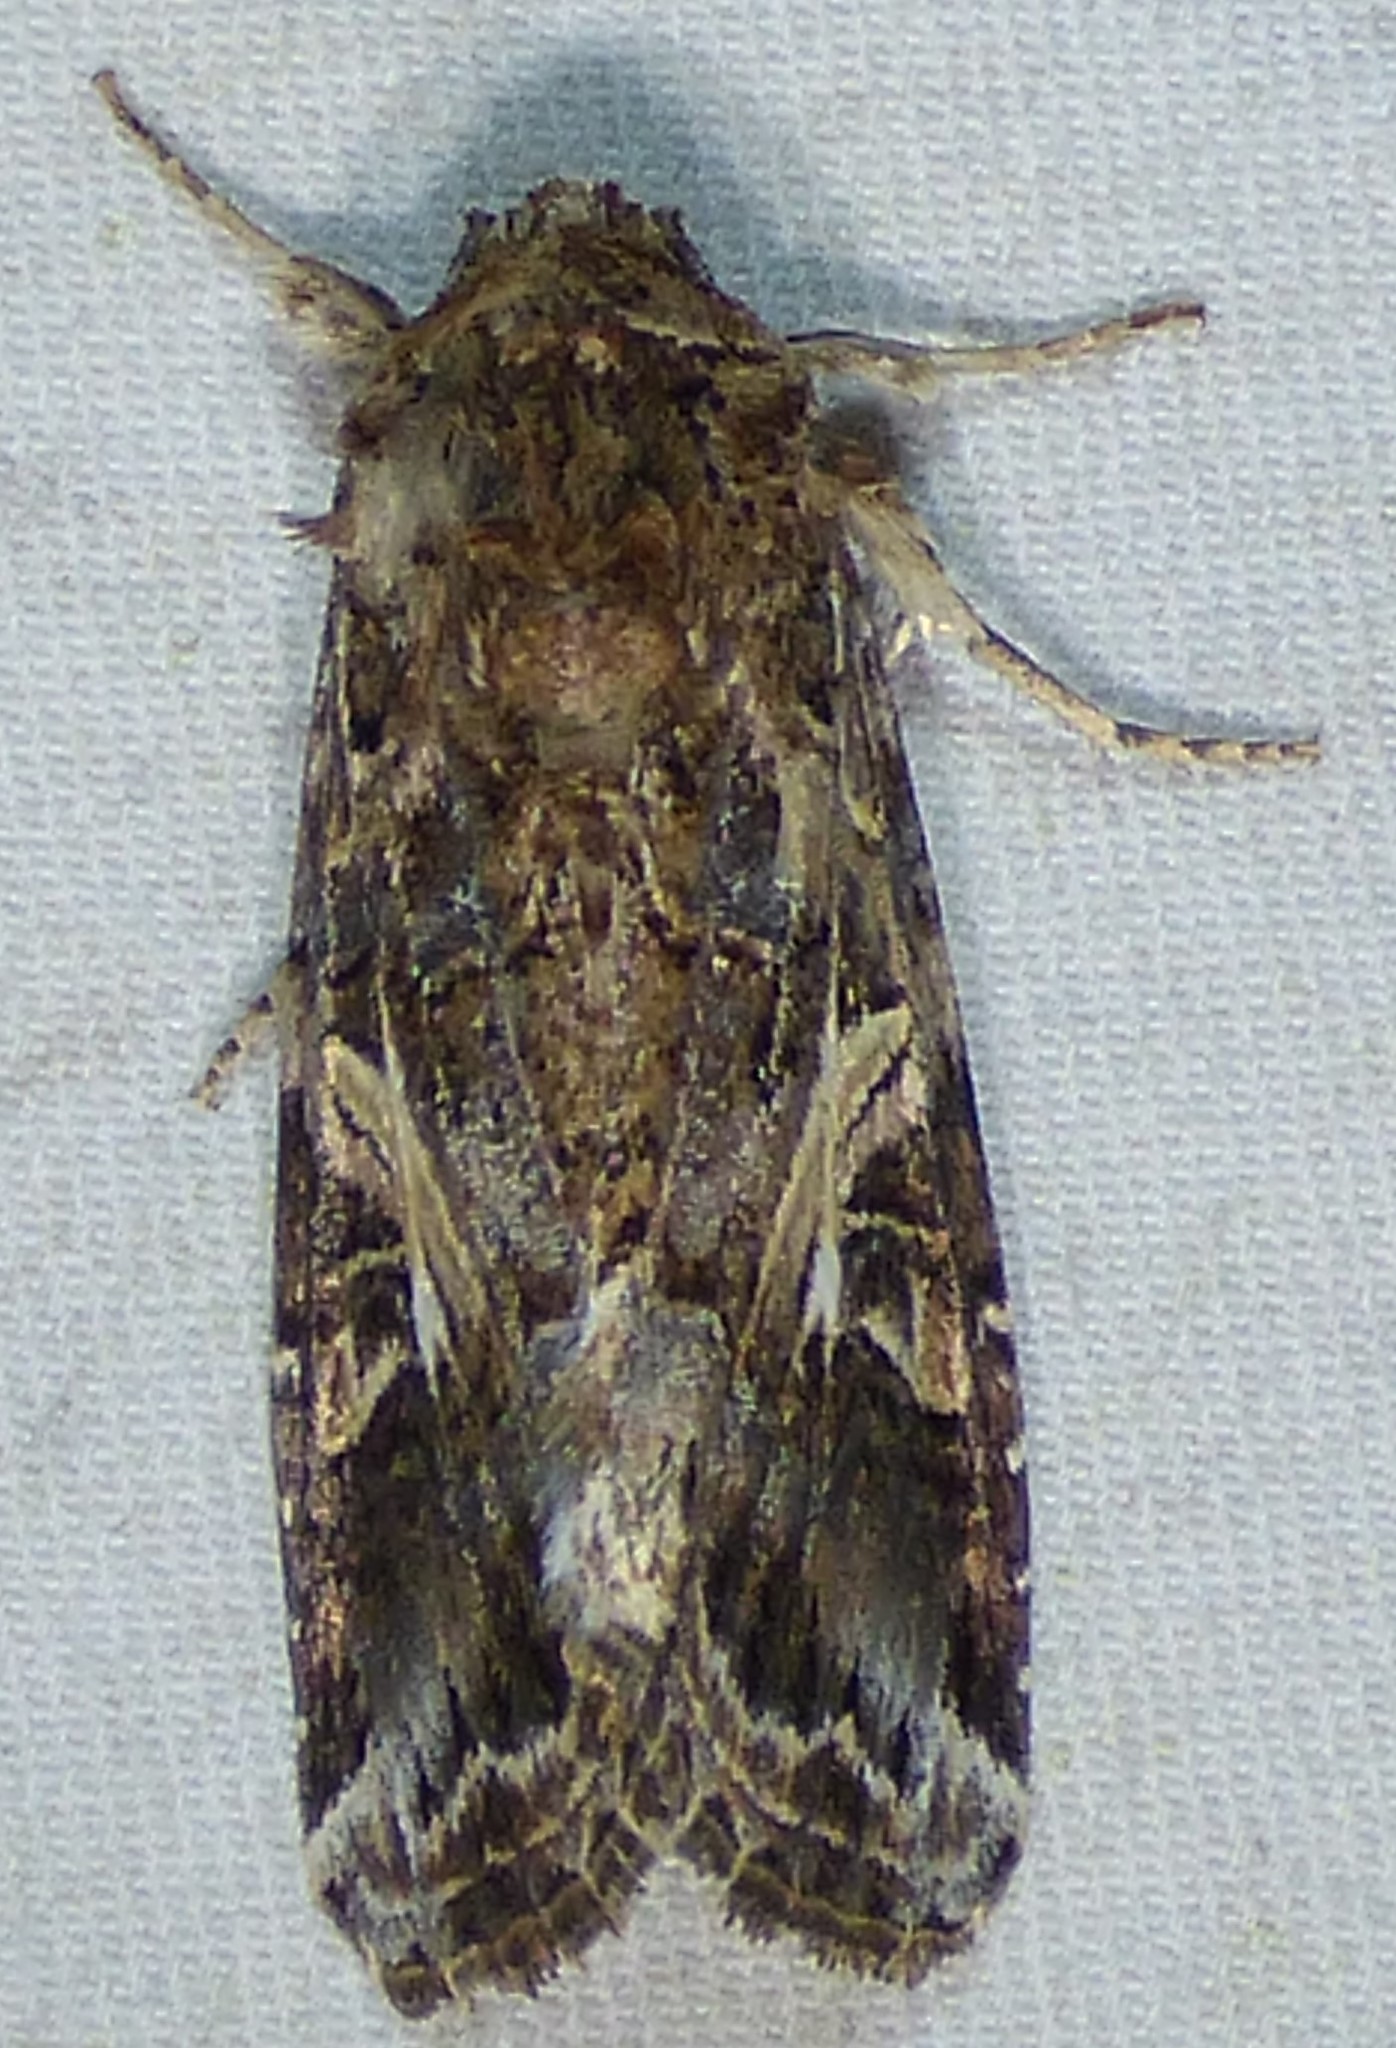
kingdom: Animalia
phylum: Arthropoda
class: Insecta
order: Lepidoptera
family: Noctuidae
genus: Spodoptera
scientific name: Spodoptera ornithogalli
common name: Yellow-striped armyworm
